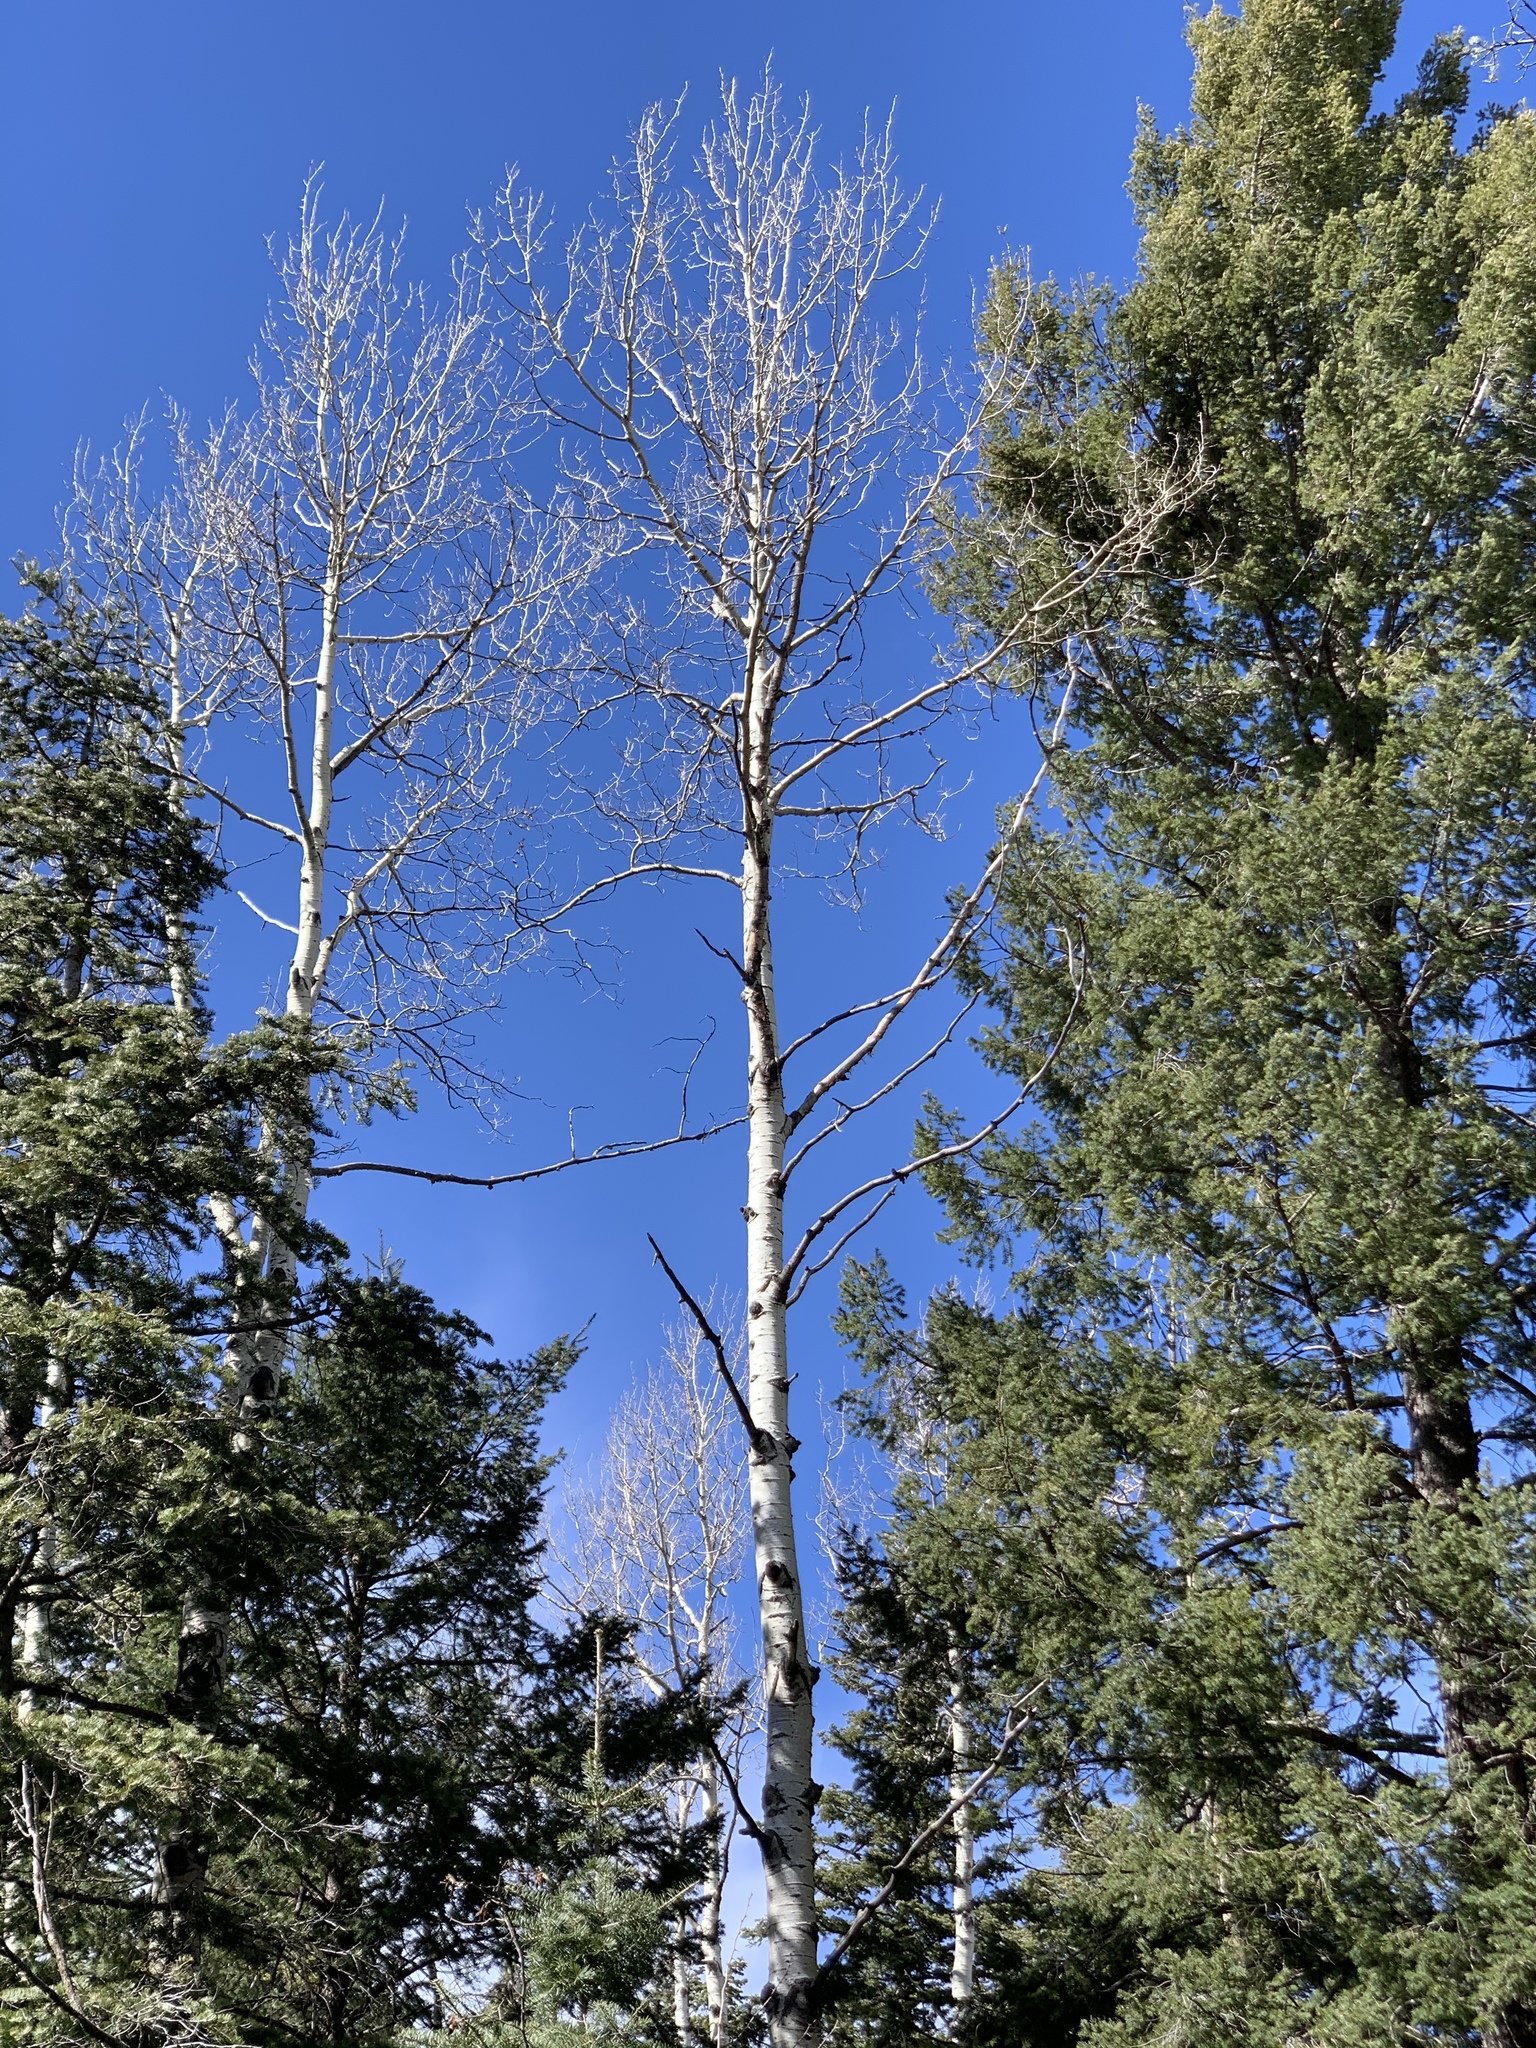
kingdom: Plantae
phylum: Tracheophyta
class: Magnoliopsida
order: Malpighiales
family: Salicaceae
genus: Populus
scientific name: Populus tremuloides
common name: Quaking aspen
